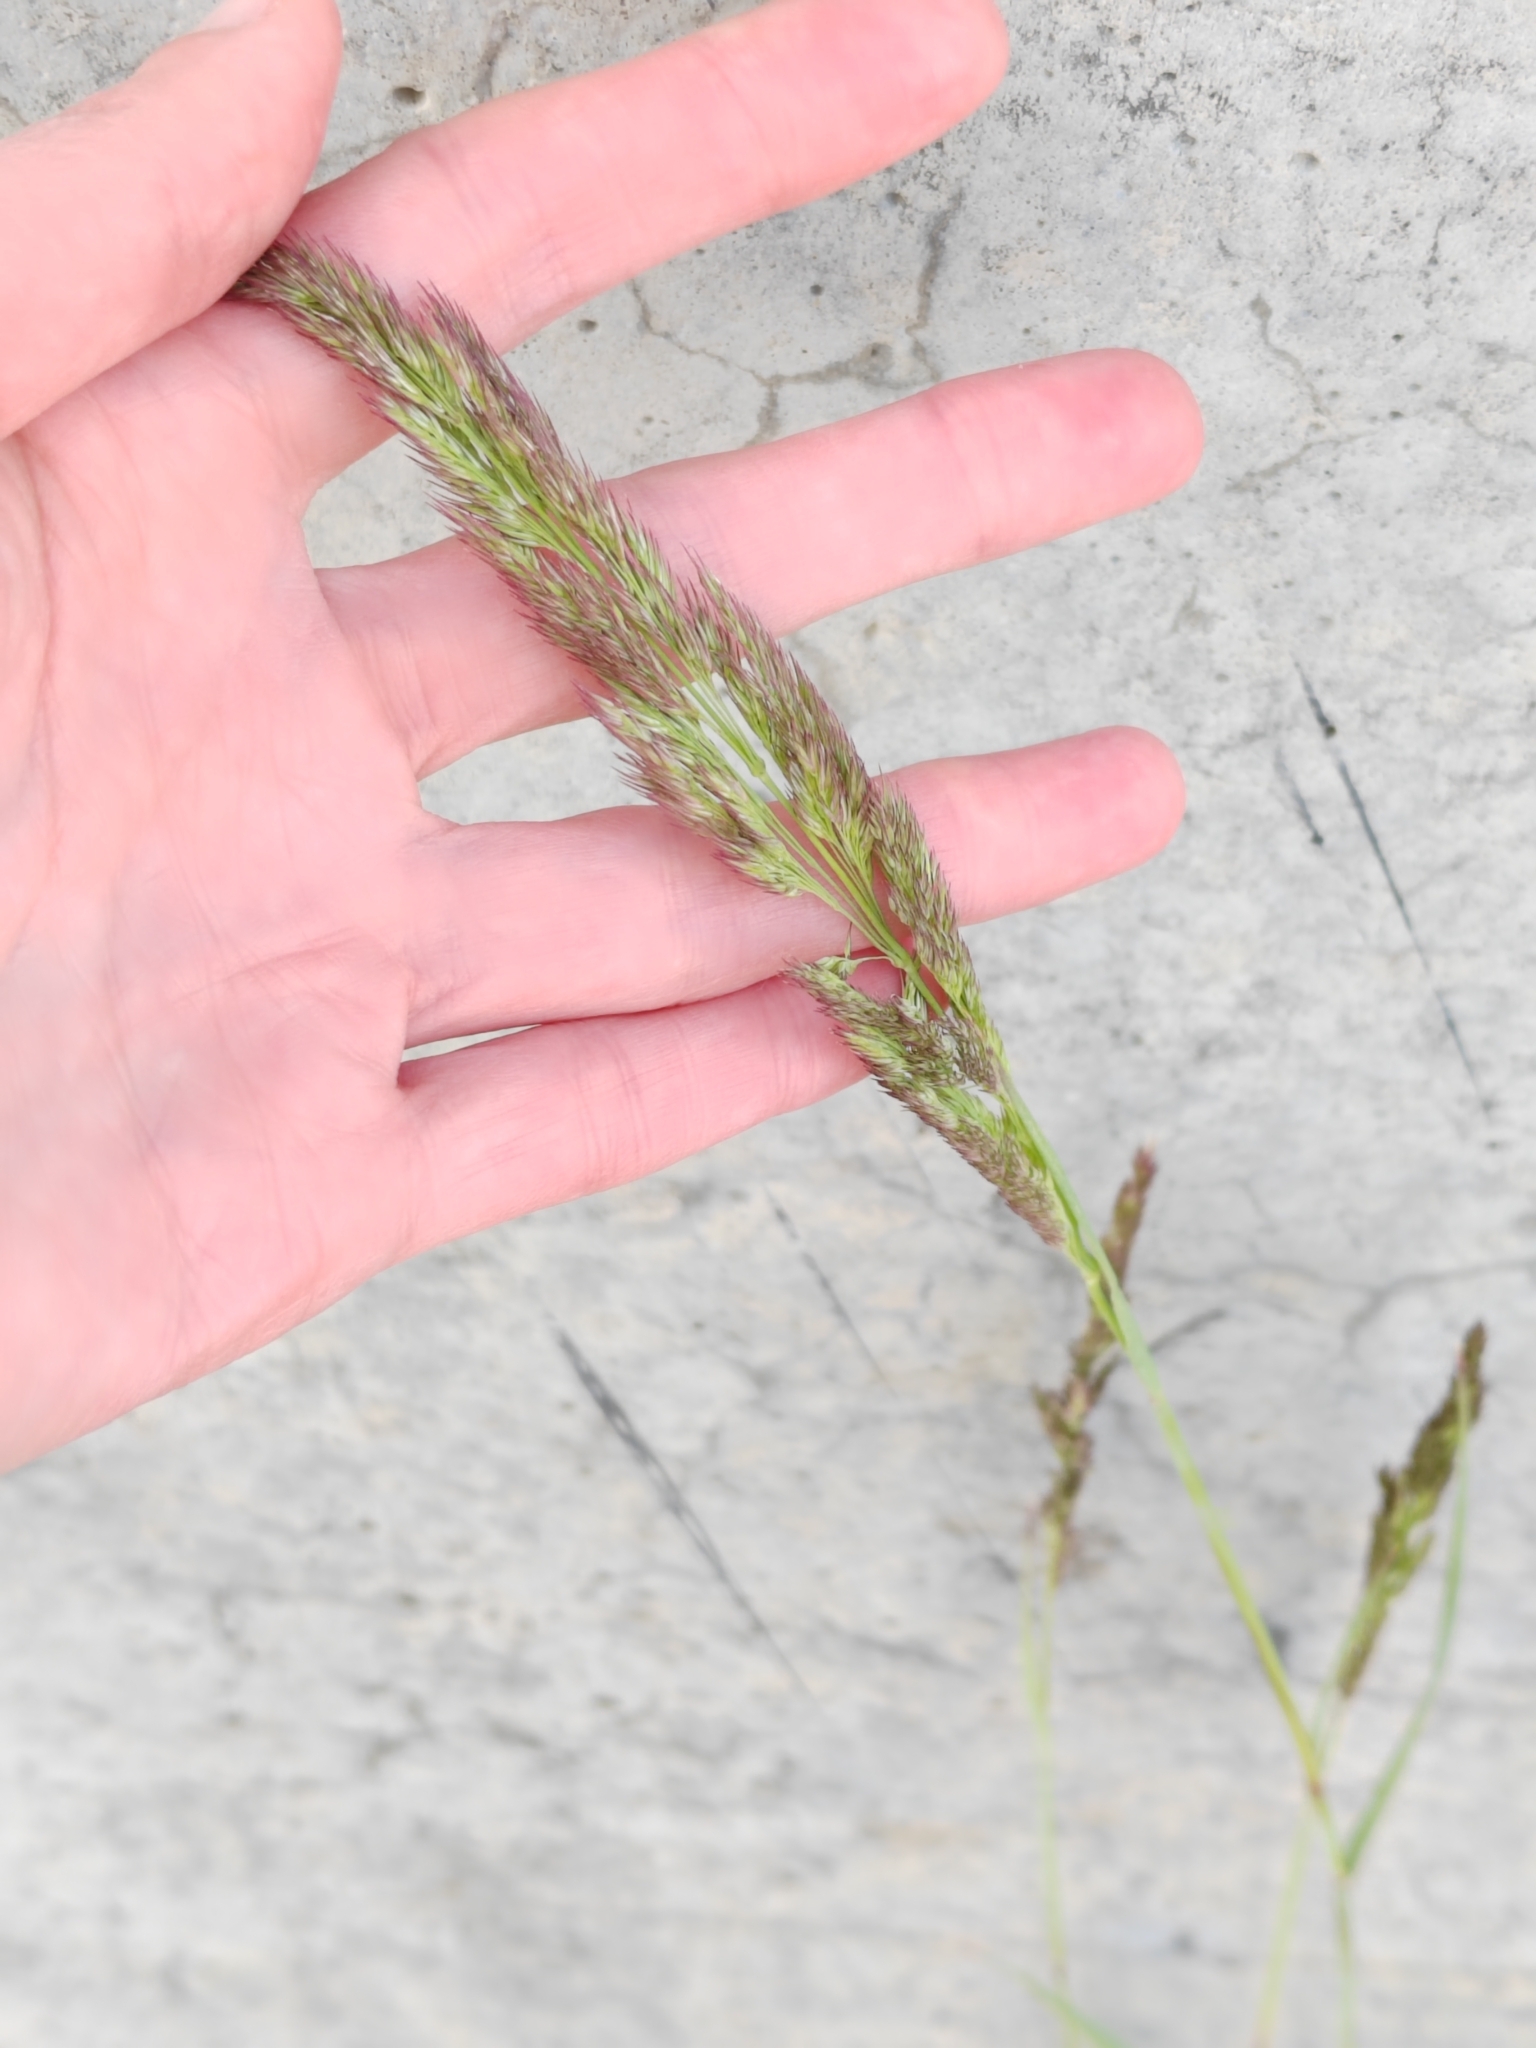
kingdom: Plantae
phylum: Tracheophyta
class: Liliopsida
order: Poales
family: Poaceae
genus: Calamagrostis
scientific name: Calamagrostis epigejos
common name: Wood small-reed
